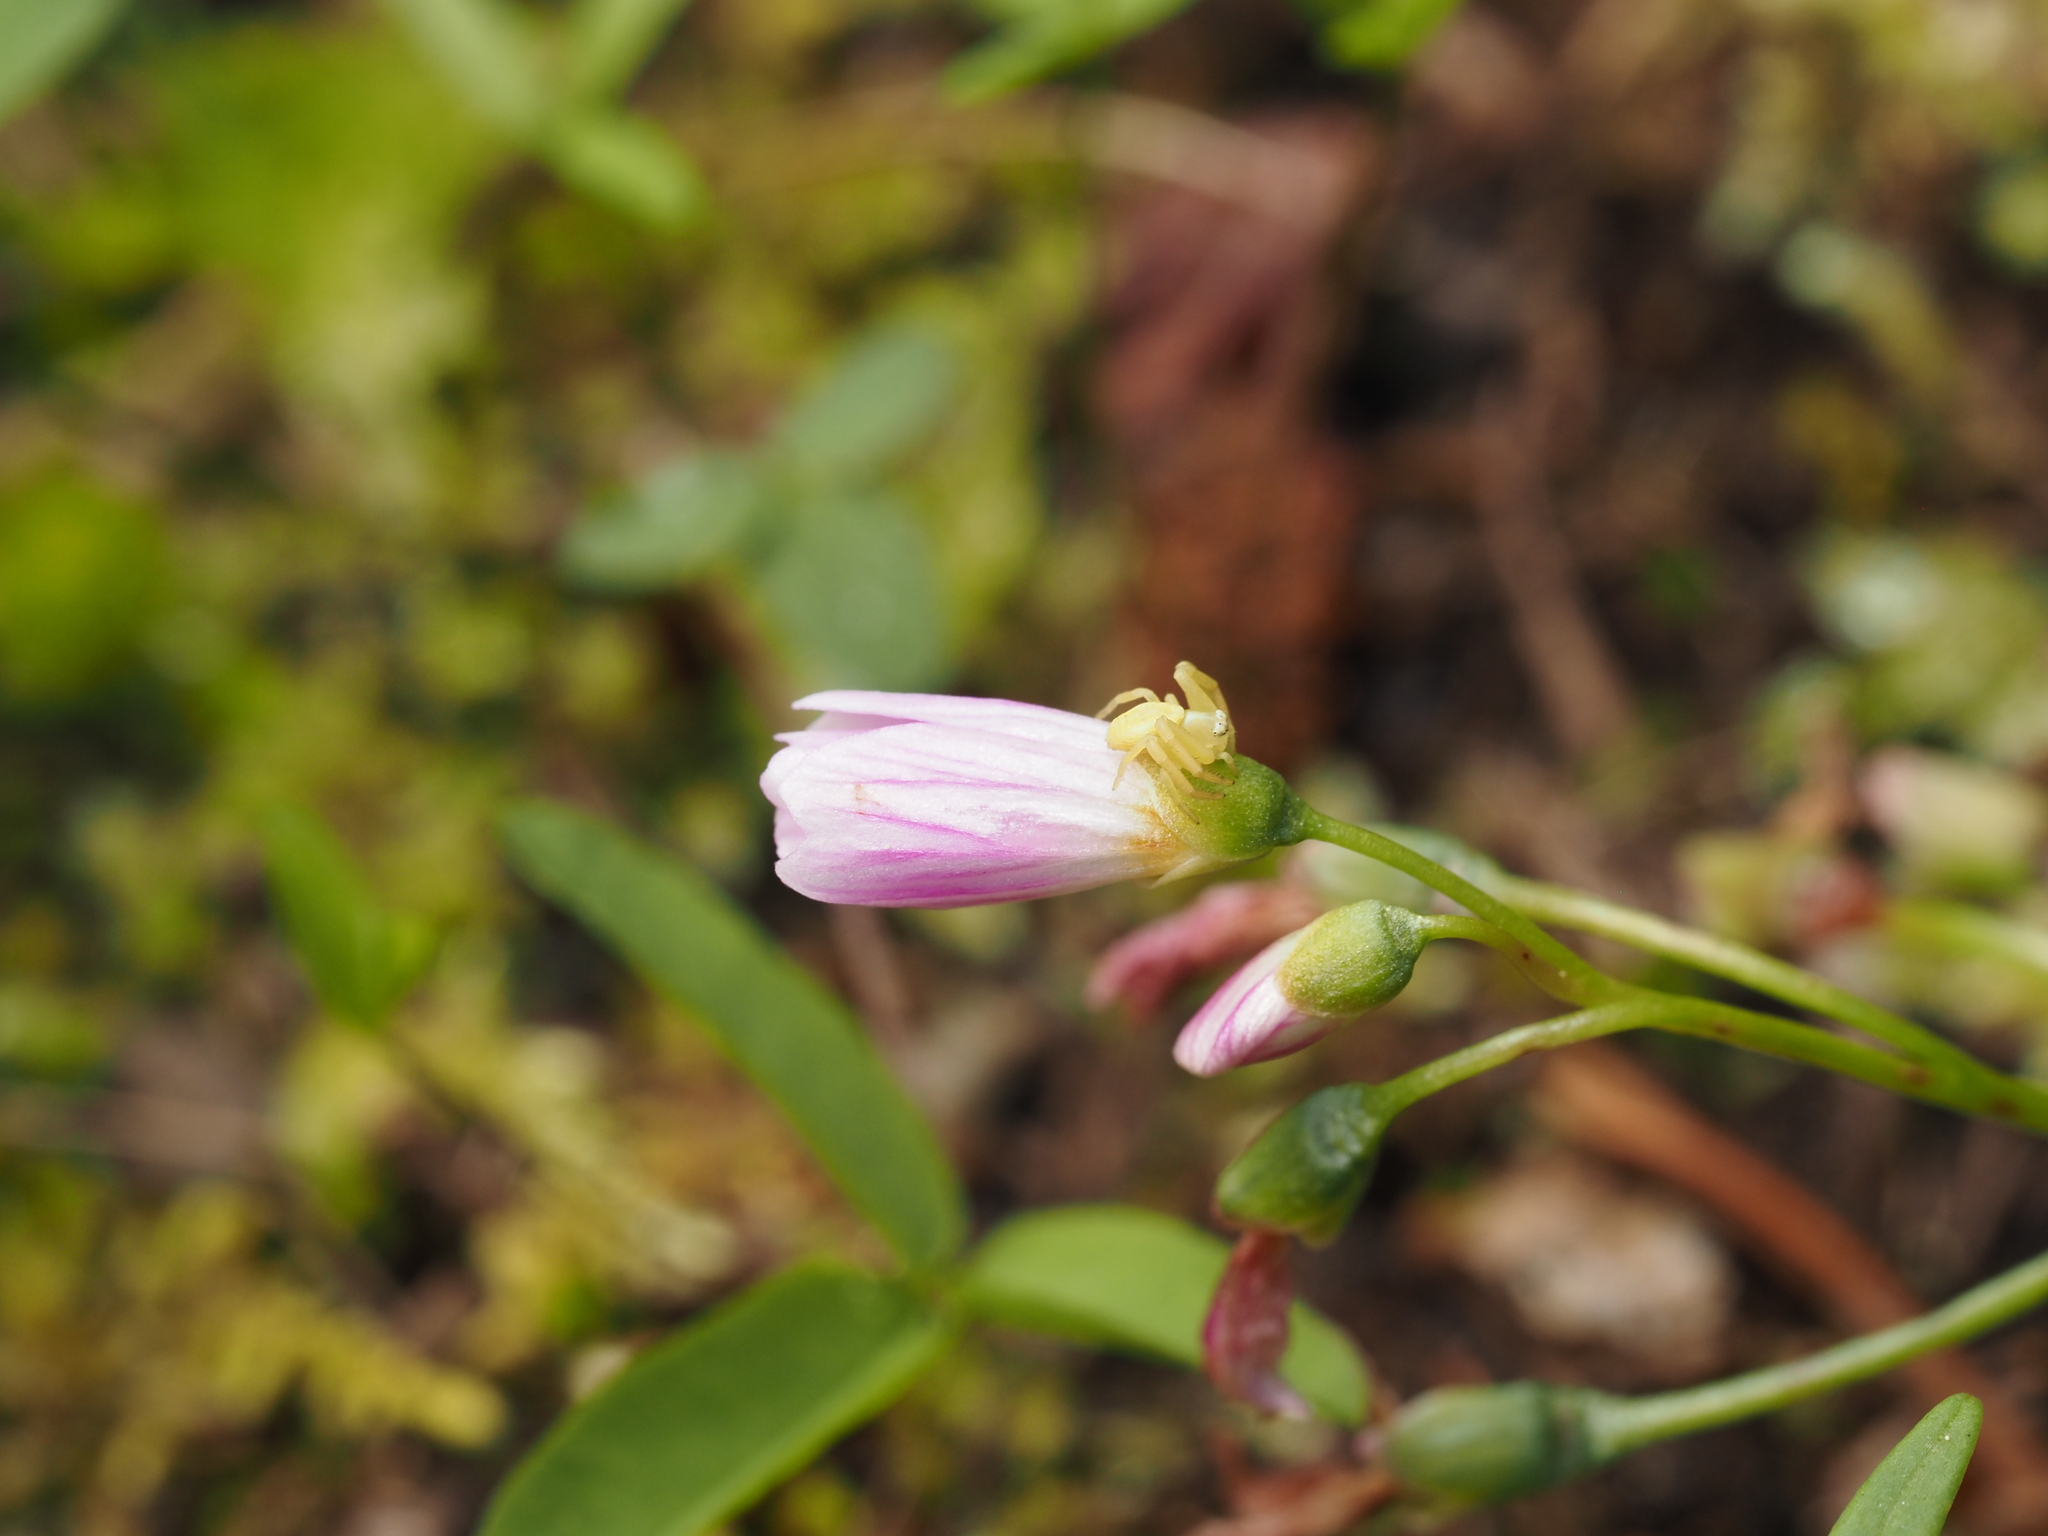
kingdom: Plantae
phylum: Tracheophyta
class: Magnoliopsida
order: Caryophyllales
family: Montiaceae
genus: Claytonia
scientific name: Claytonia lanceolata
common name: Western spring-beauty
